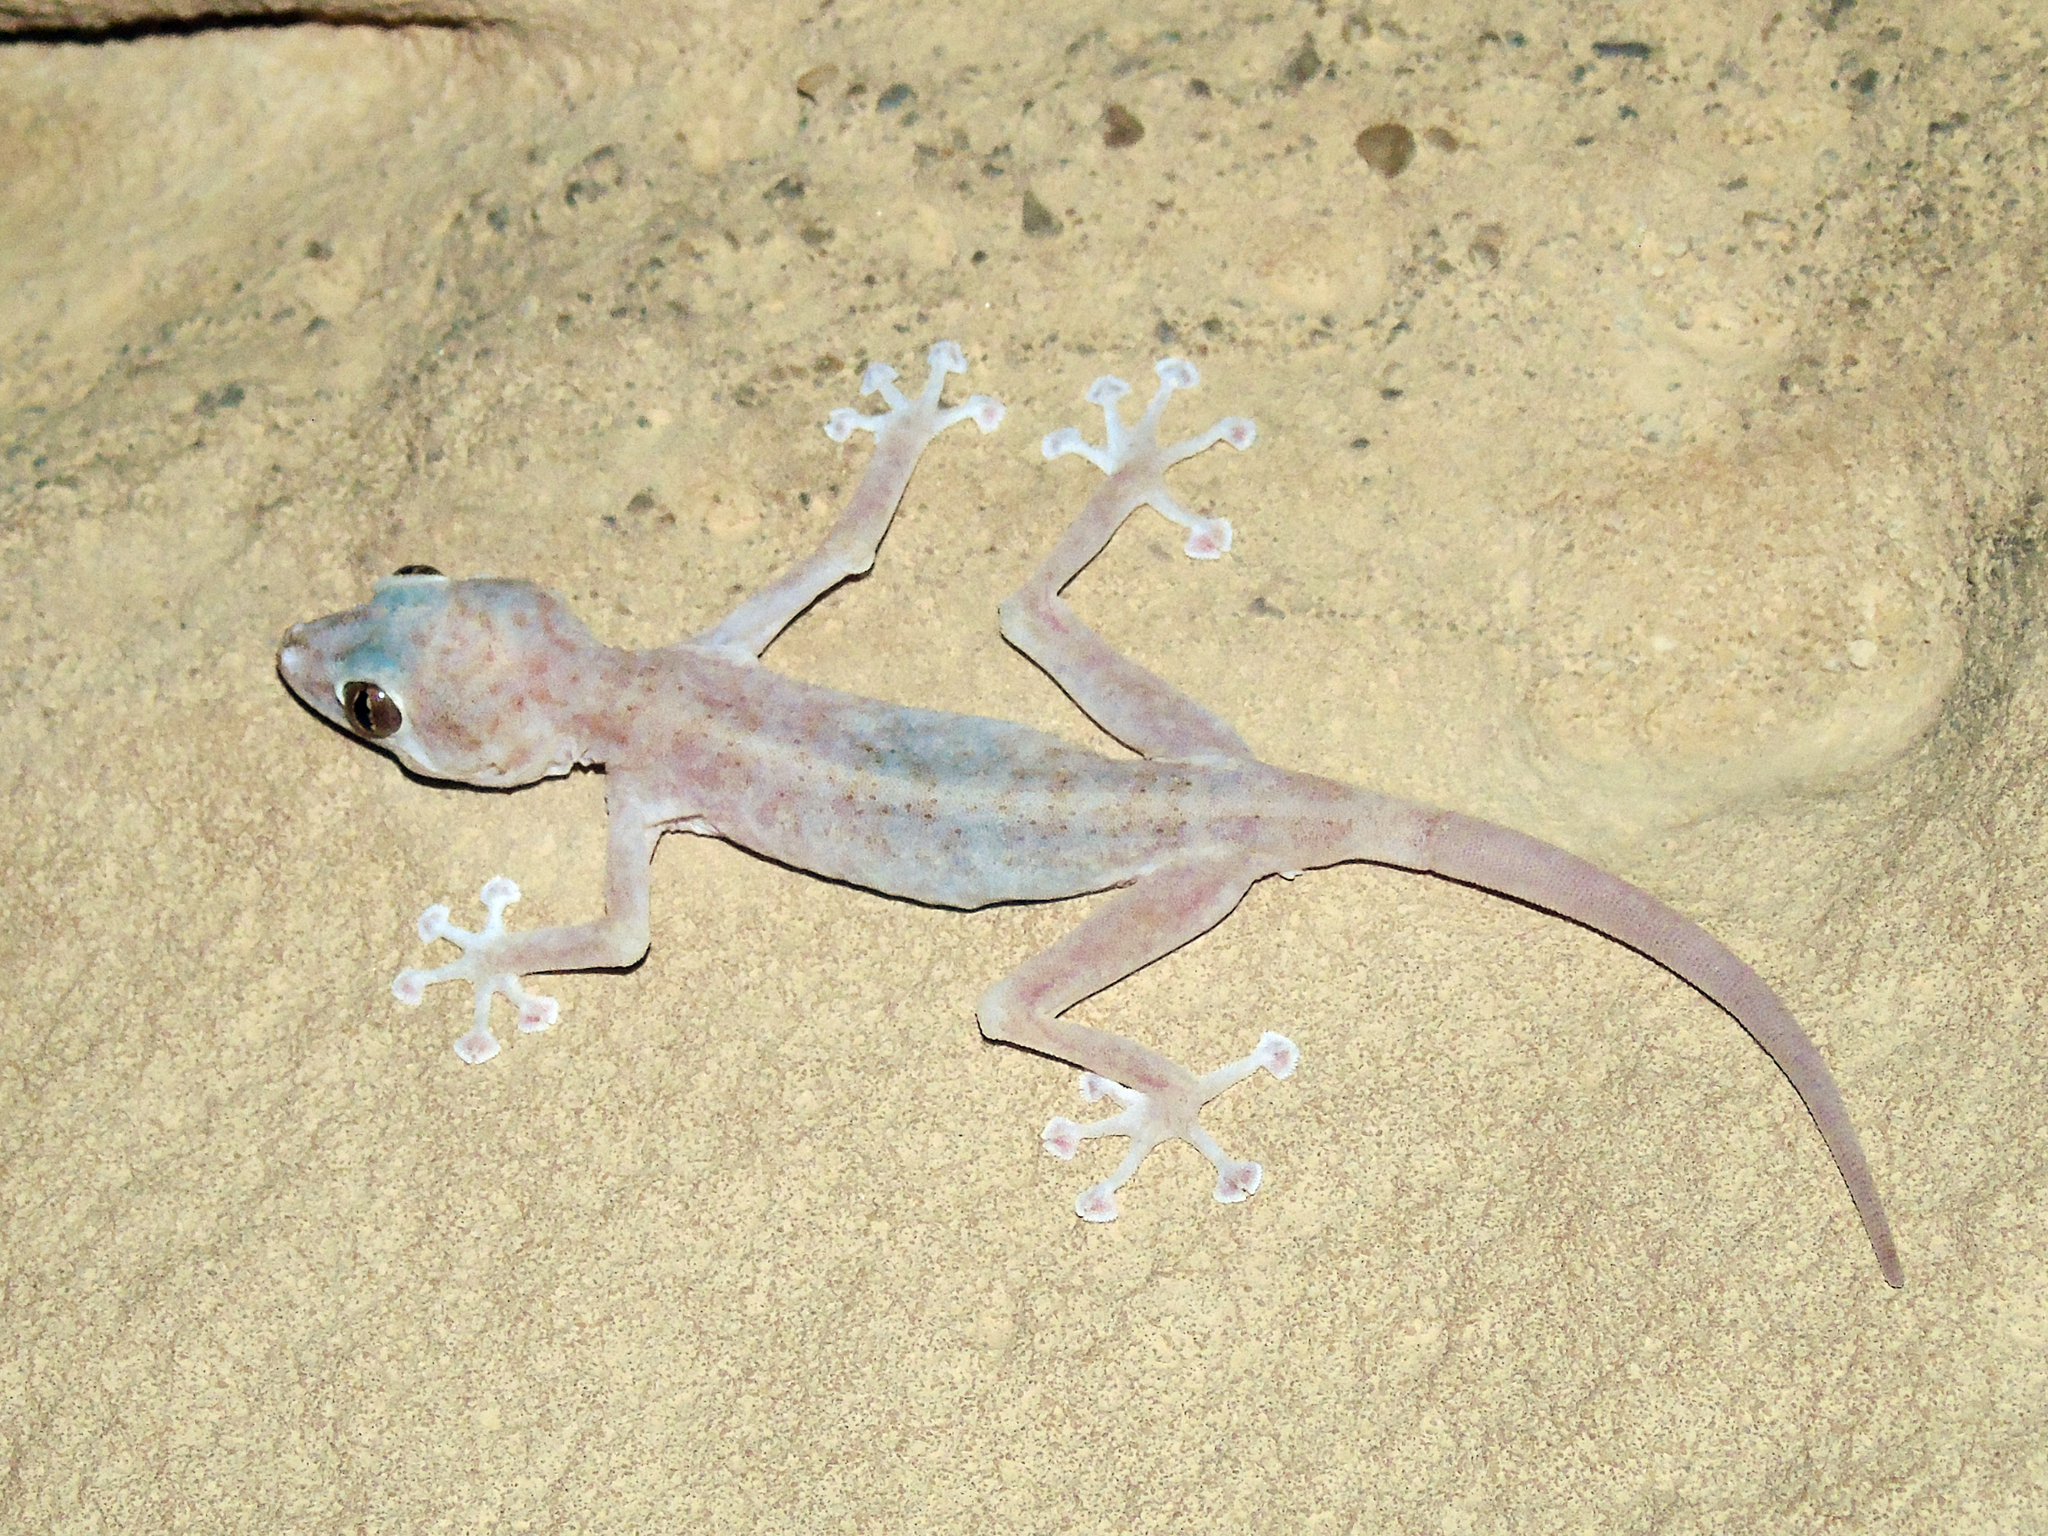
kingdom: Animalia
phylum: Chordata
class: Squamata
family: Phyllodactylidae
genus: Ptyodactylus
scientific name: Ptyodactylus hasselquistii
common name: Hasselquist’s fan-footed gecko
